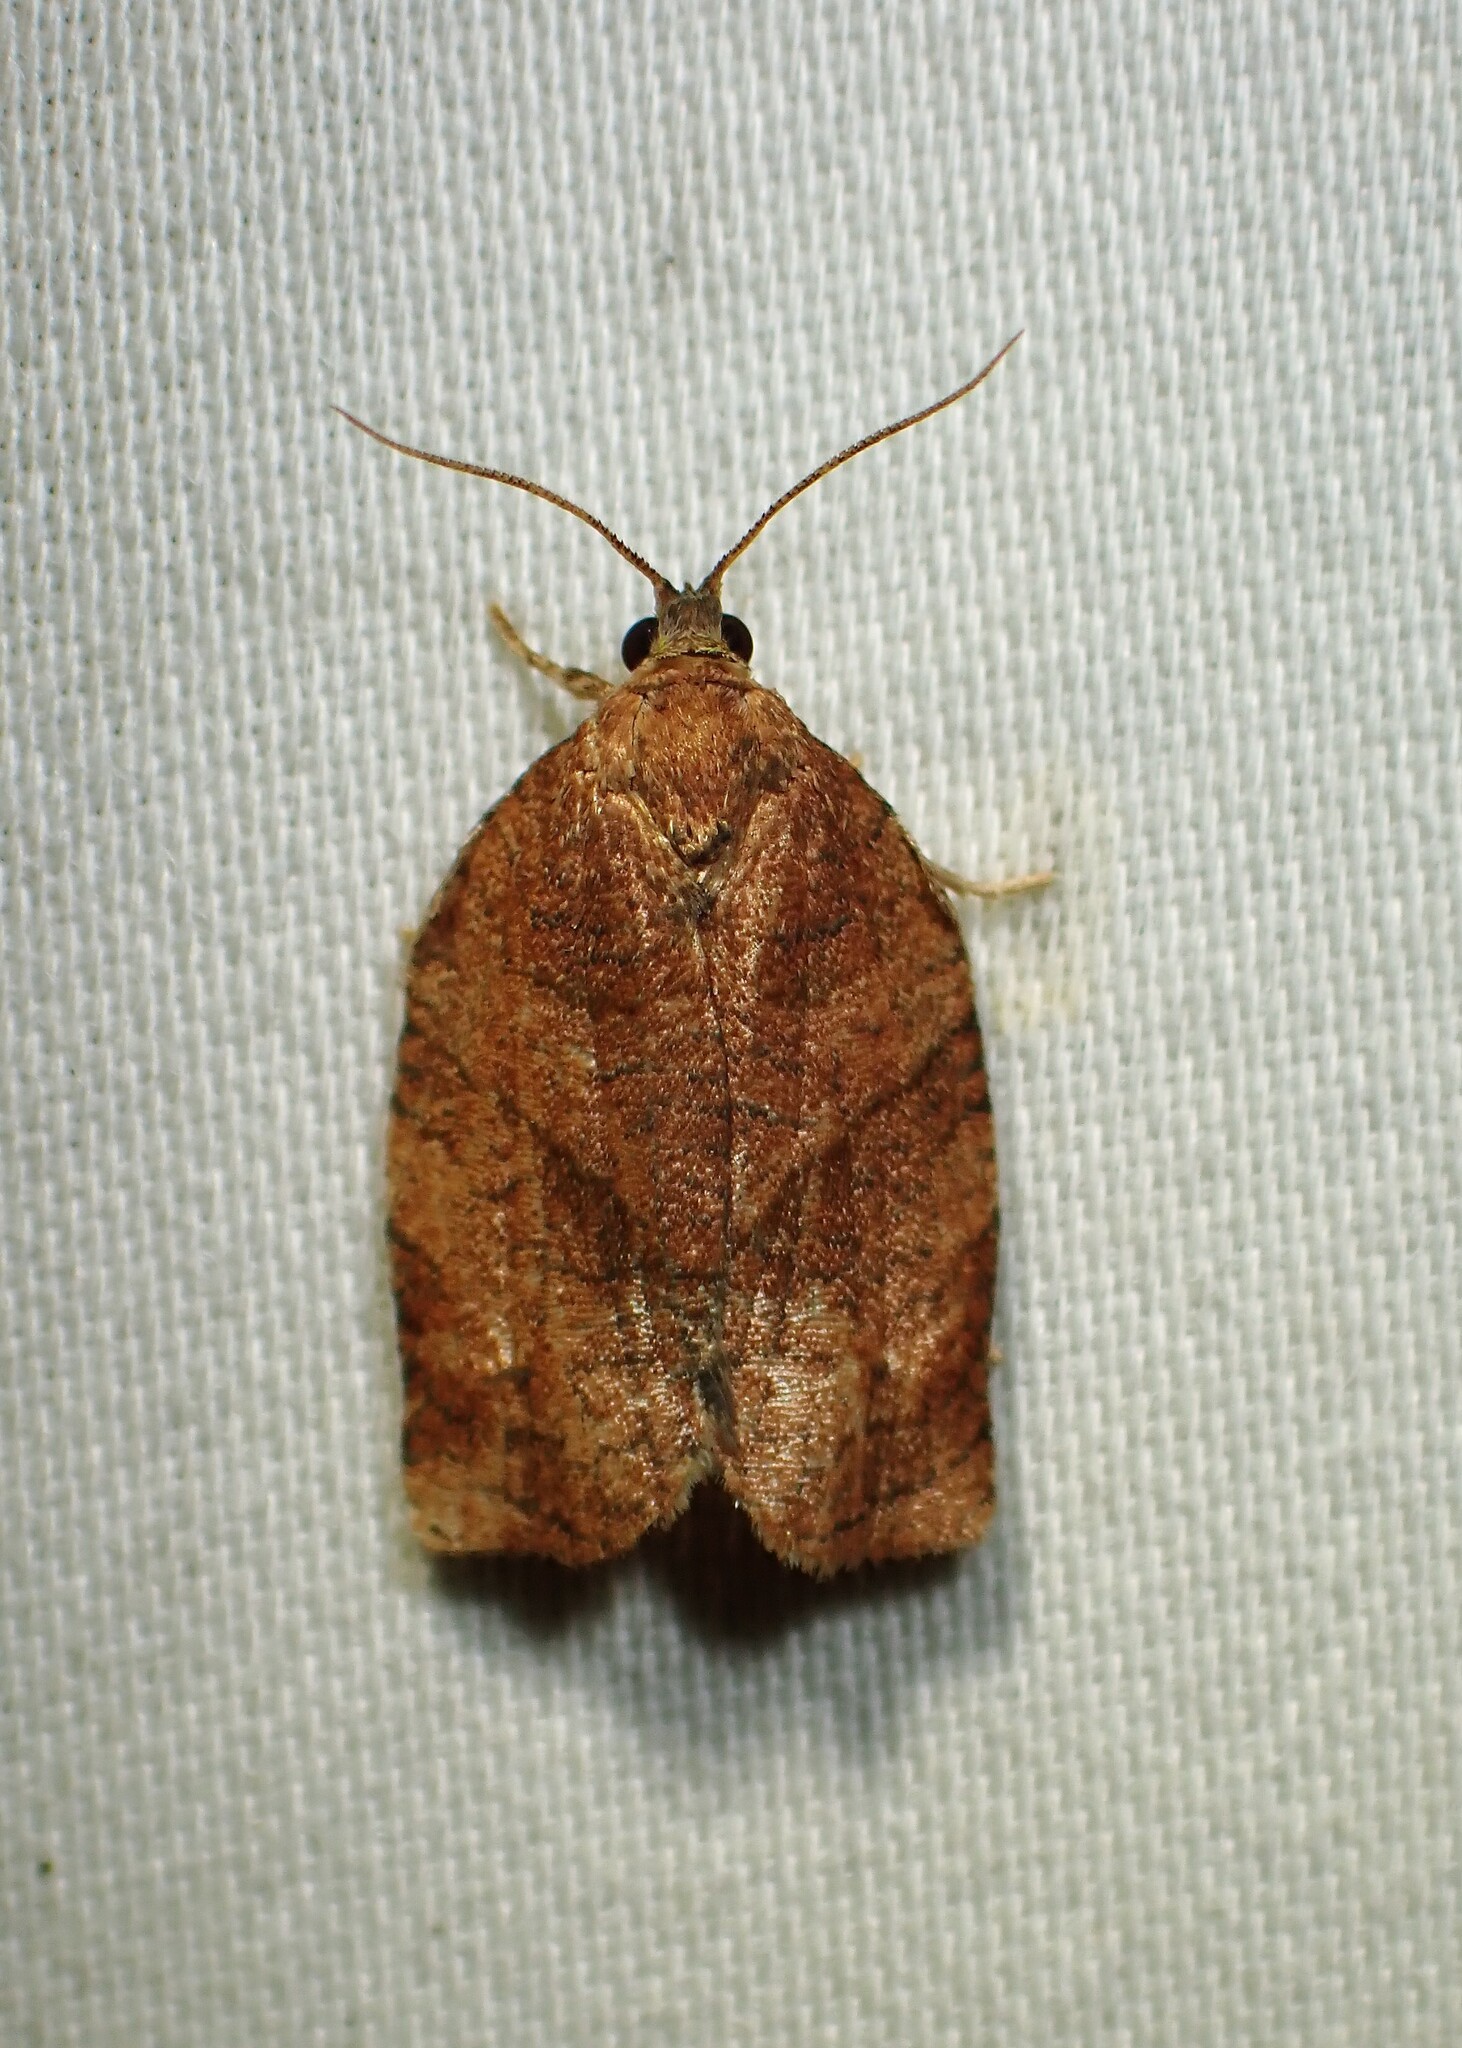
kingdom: Animalia
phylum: Arthropoda
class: Insecta
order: Lepidoptera
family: Tortricidae
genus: Choristoneura
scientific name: Choristoneura rosaceana
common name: Oblique-banded leafroller moth
